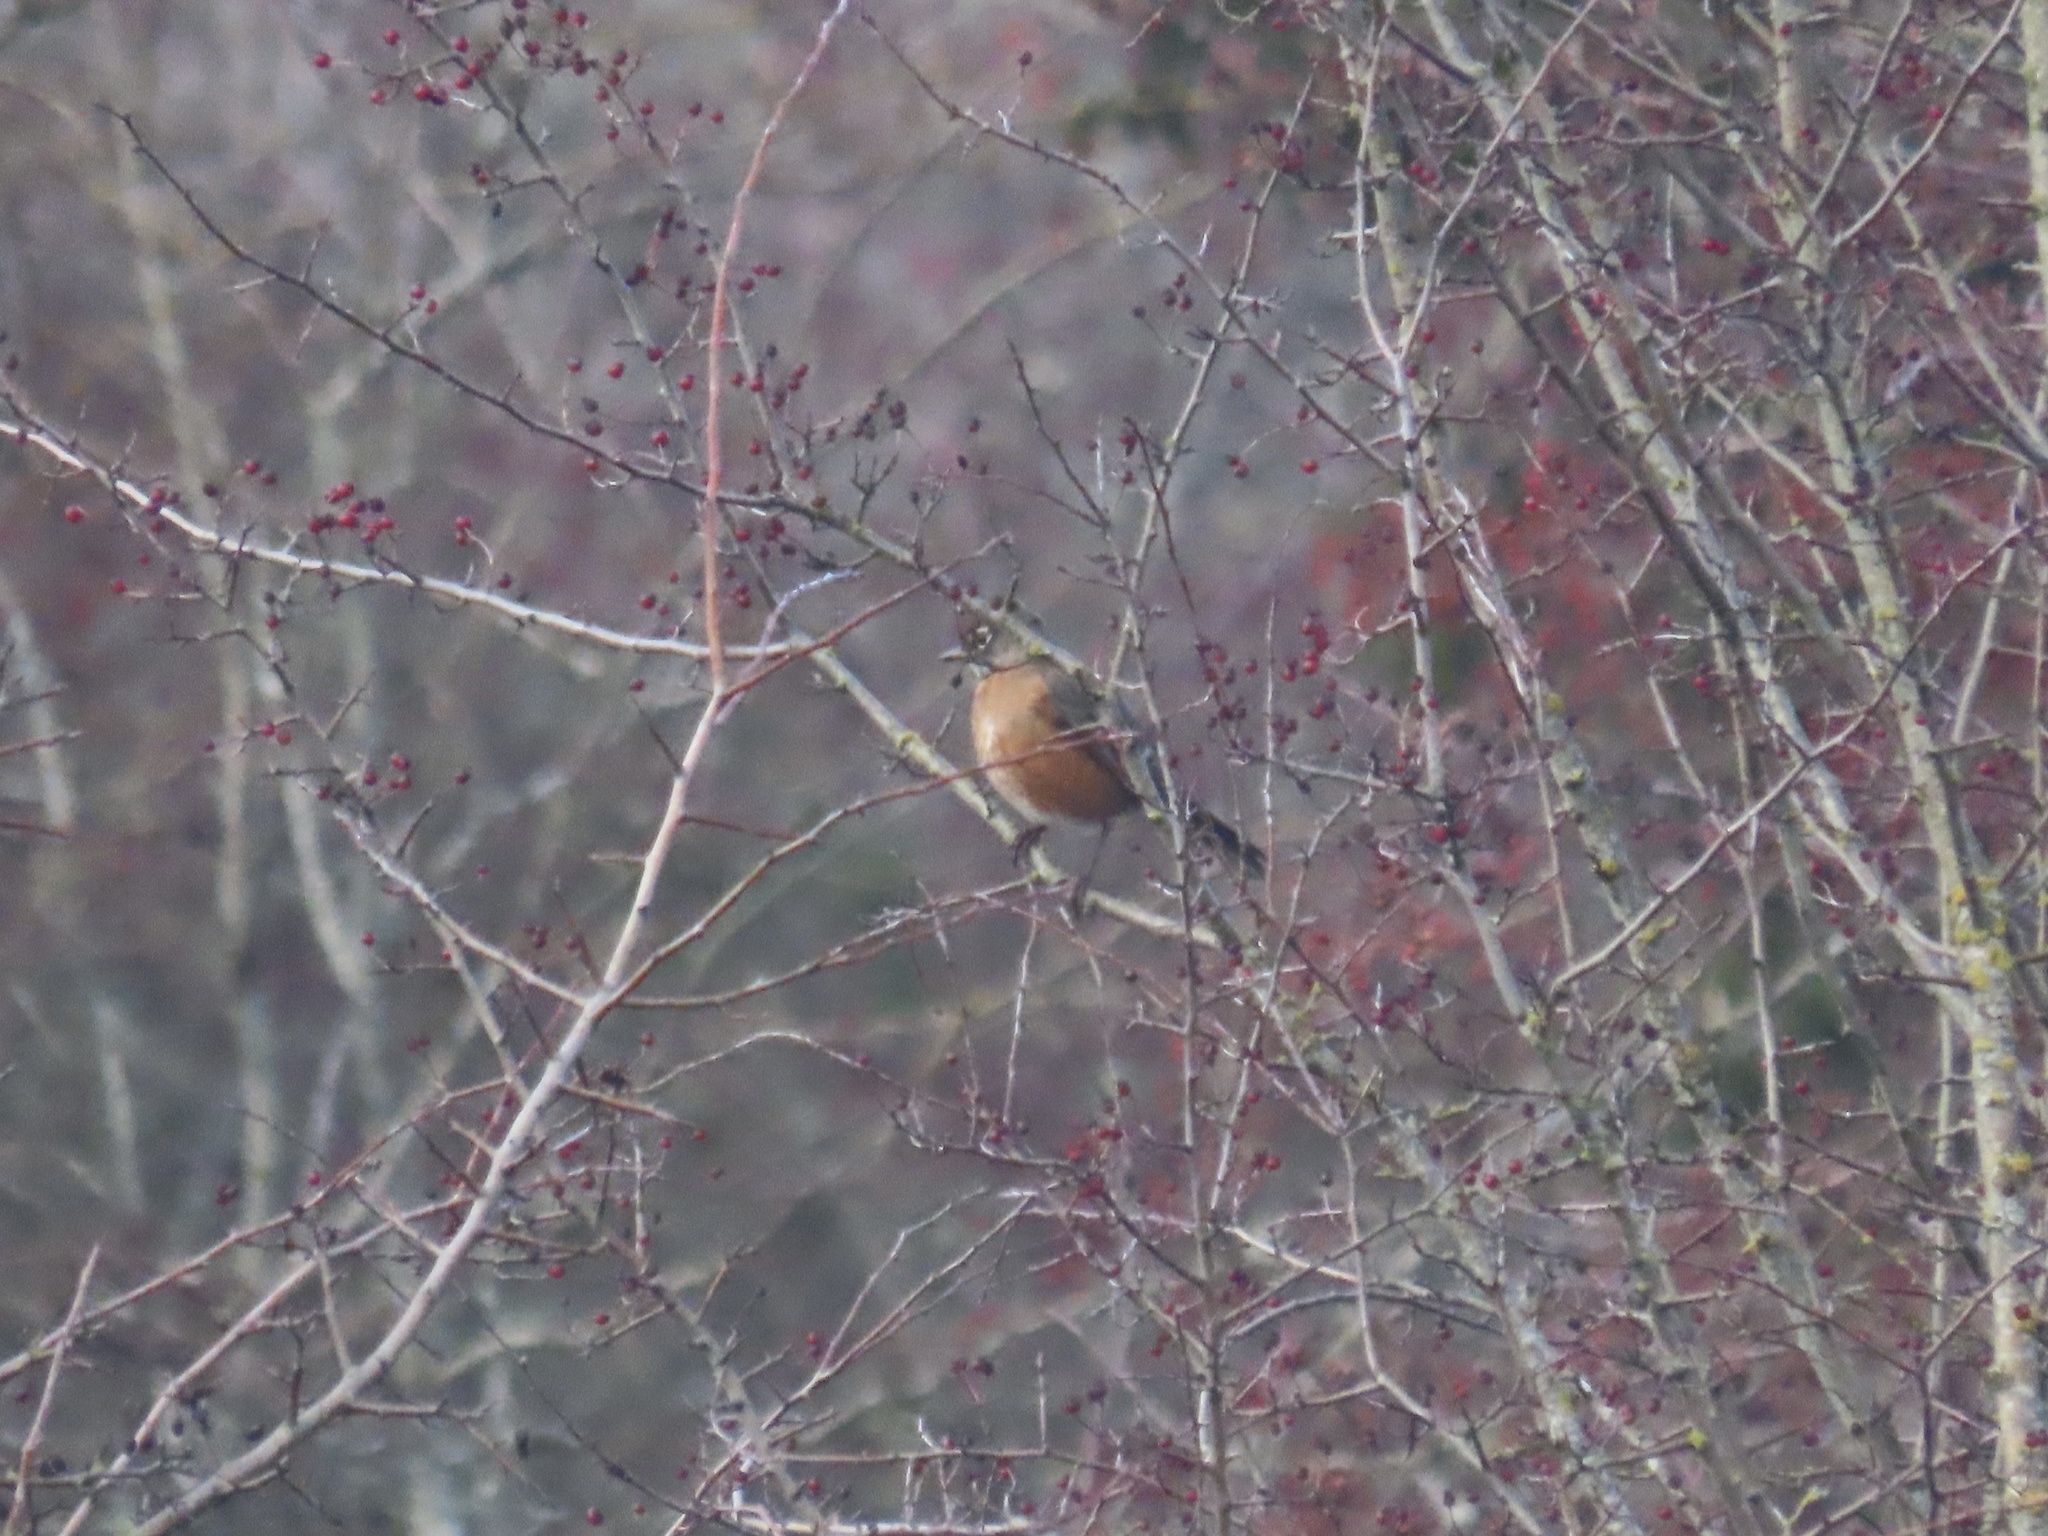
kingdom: Animalia
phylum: Chordata
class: Aves
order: Passeriformes
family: Turdidae
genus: Turdus
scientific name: Turdus migratorius
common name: American robin
